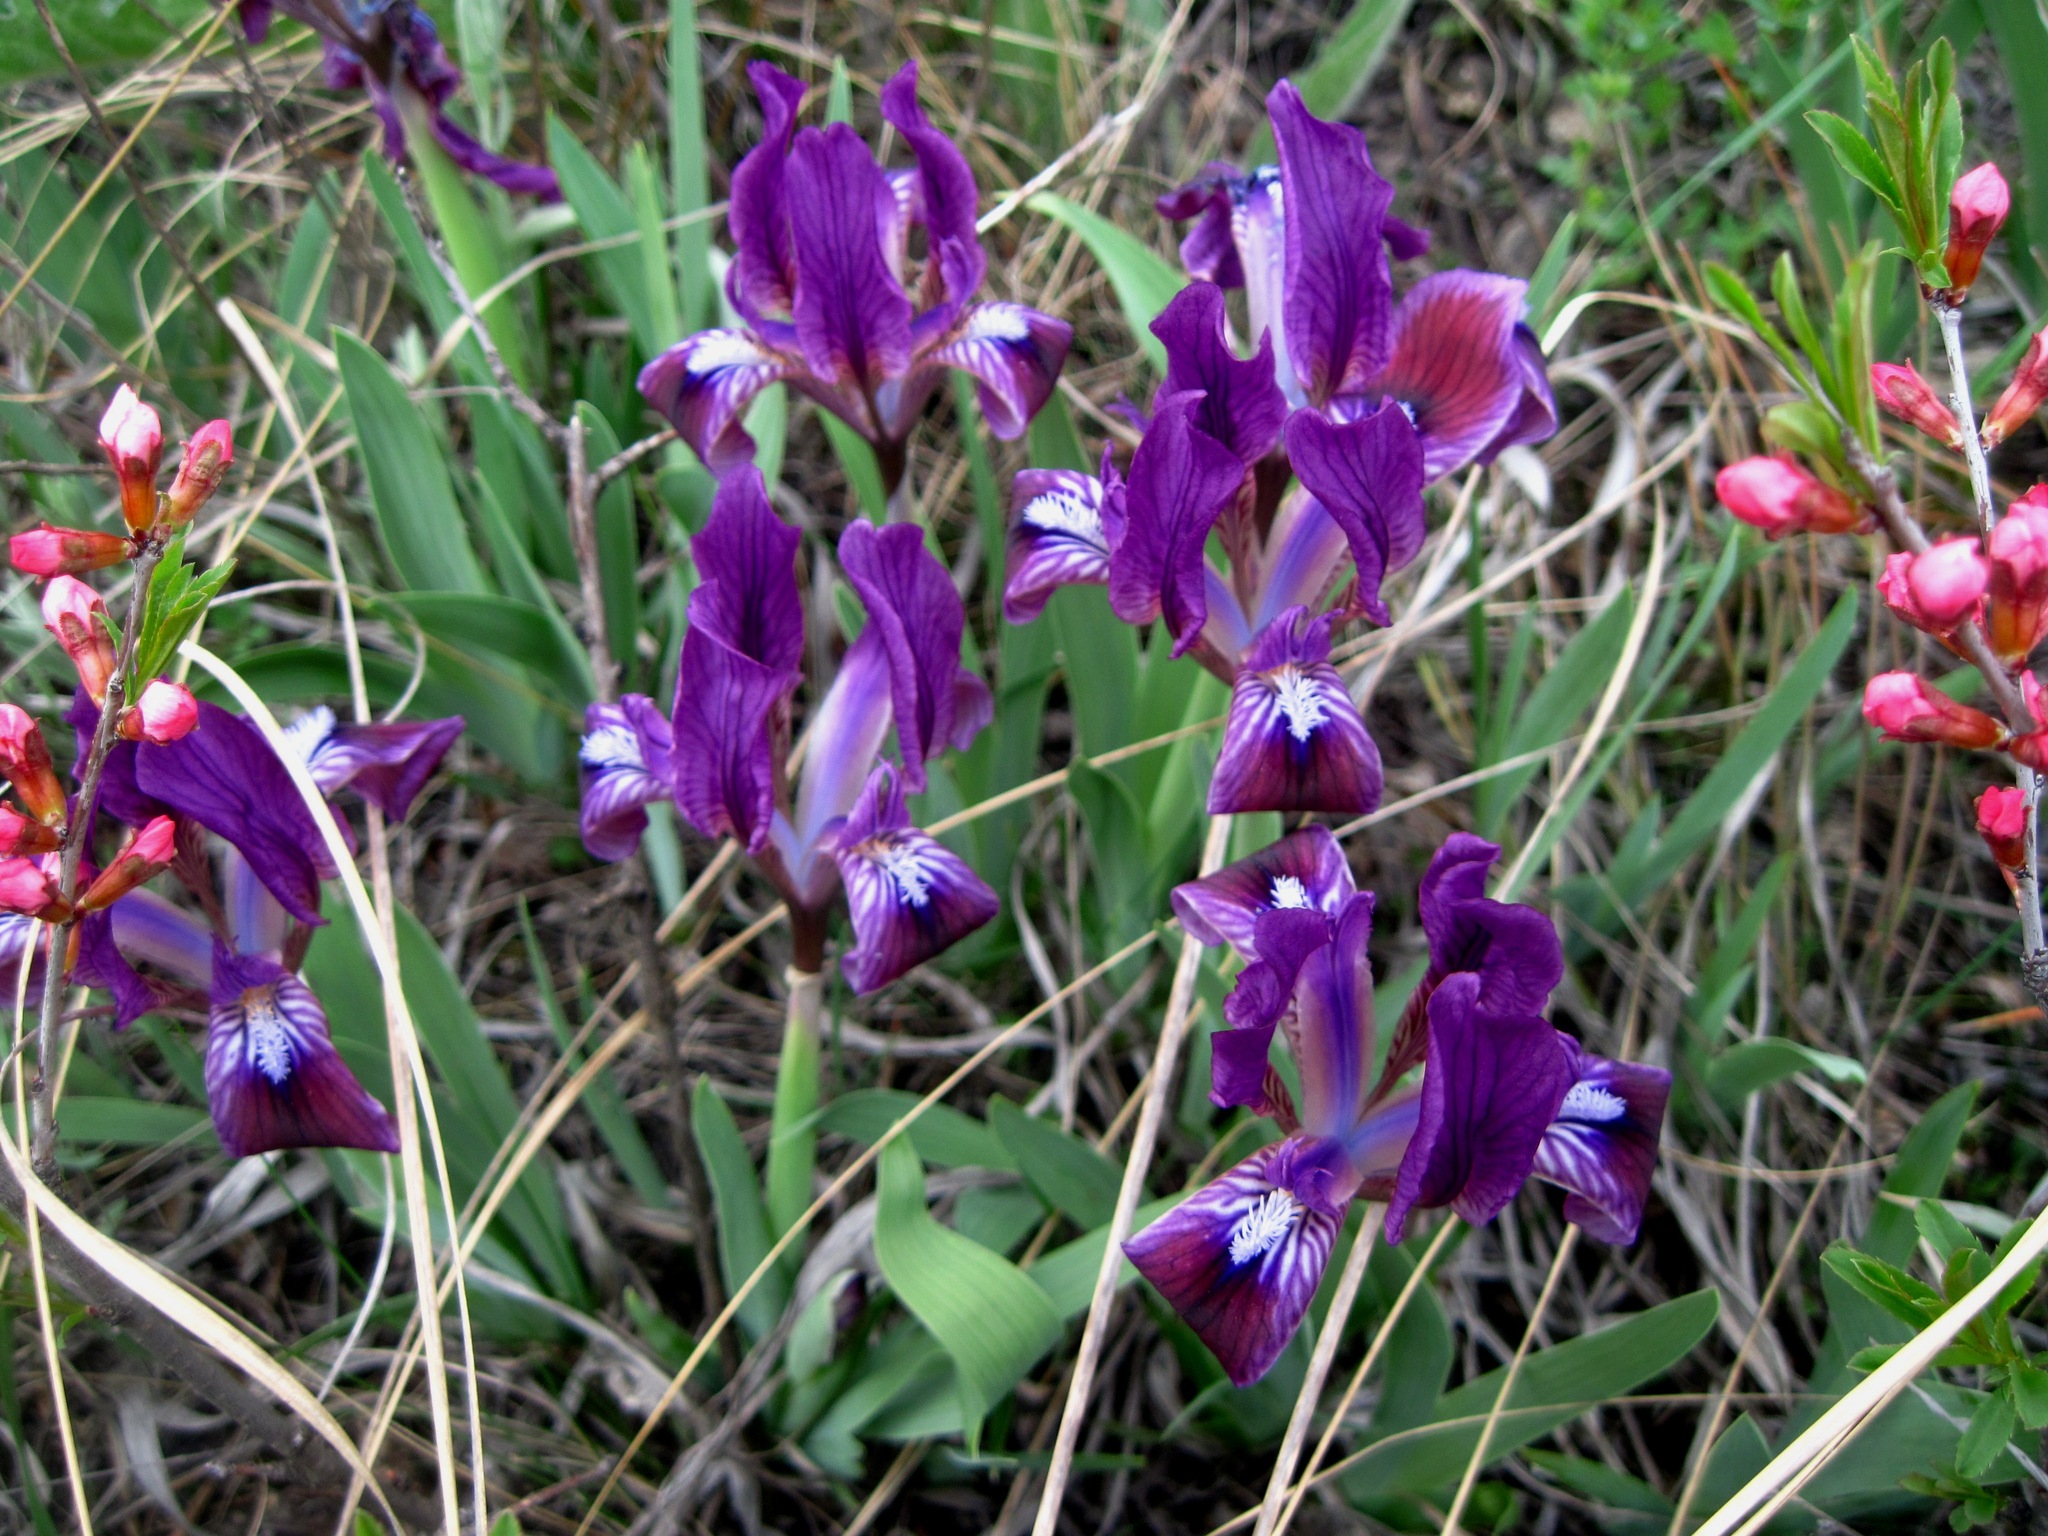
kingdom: Plantae
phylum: Tracheophyta
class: Liliopsida
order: Asparagales
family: Iridaceae
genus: Iris
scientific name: Iris pumila
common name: Dwarf iris
